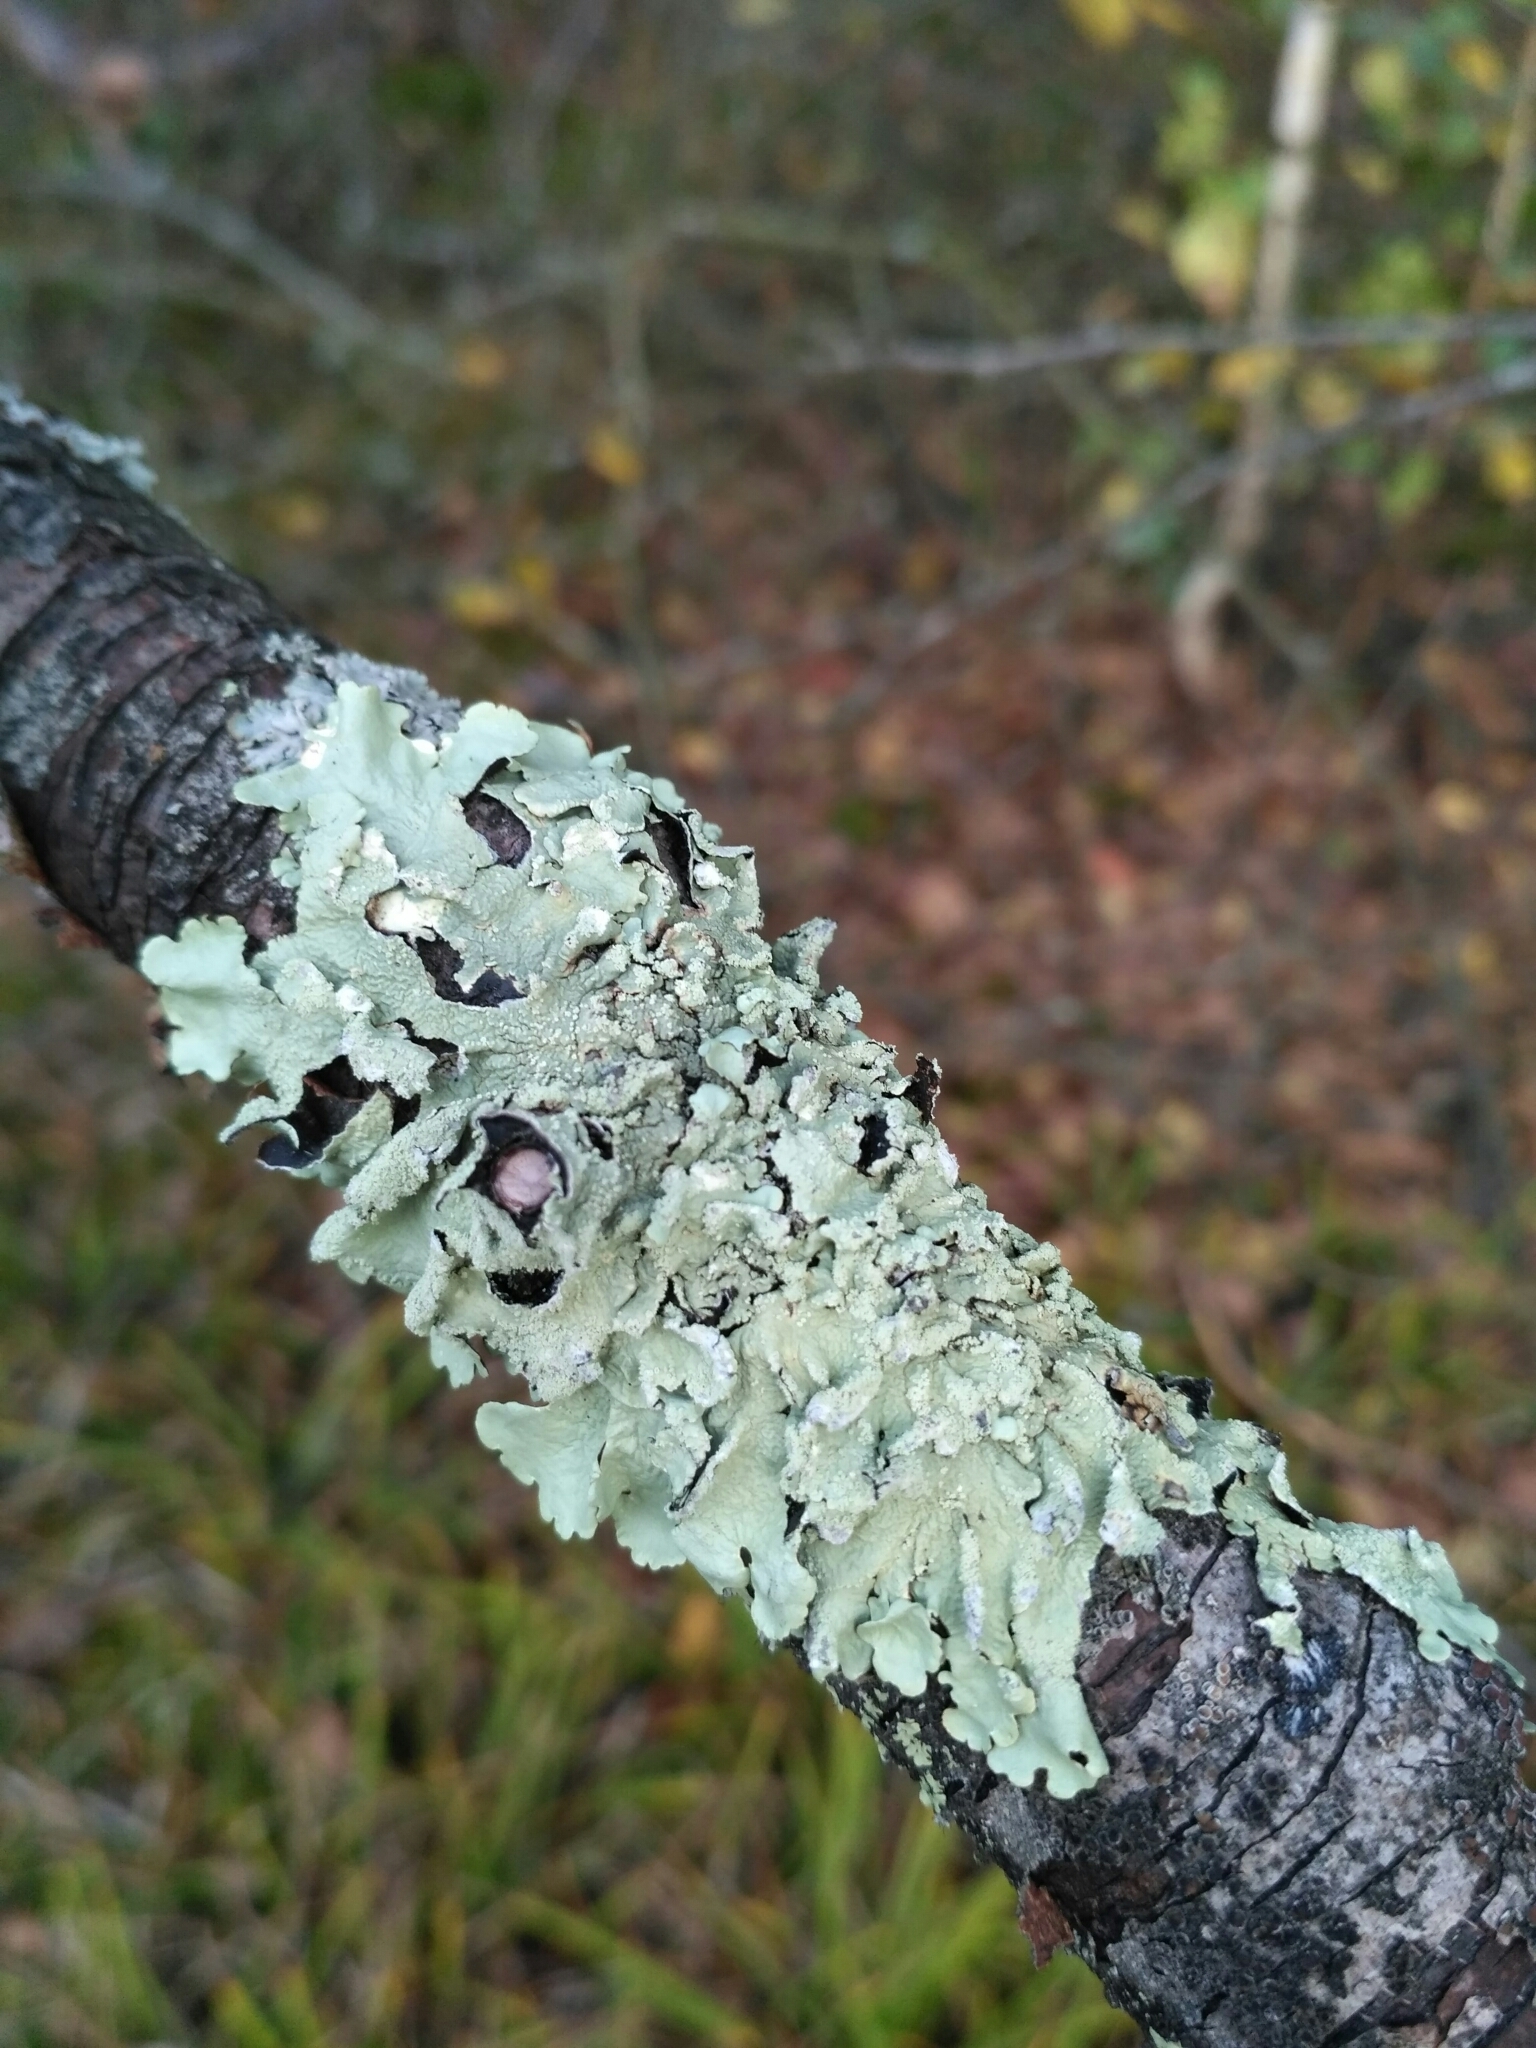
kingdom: Fungi
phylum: Ascomycota
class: Lecanoromycetes
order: Lecanorales
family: Parmeliaceae
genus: Flavoparmelia
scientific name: Flavoparmelia caperata
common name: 40-mile per hour lichen
